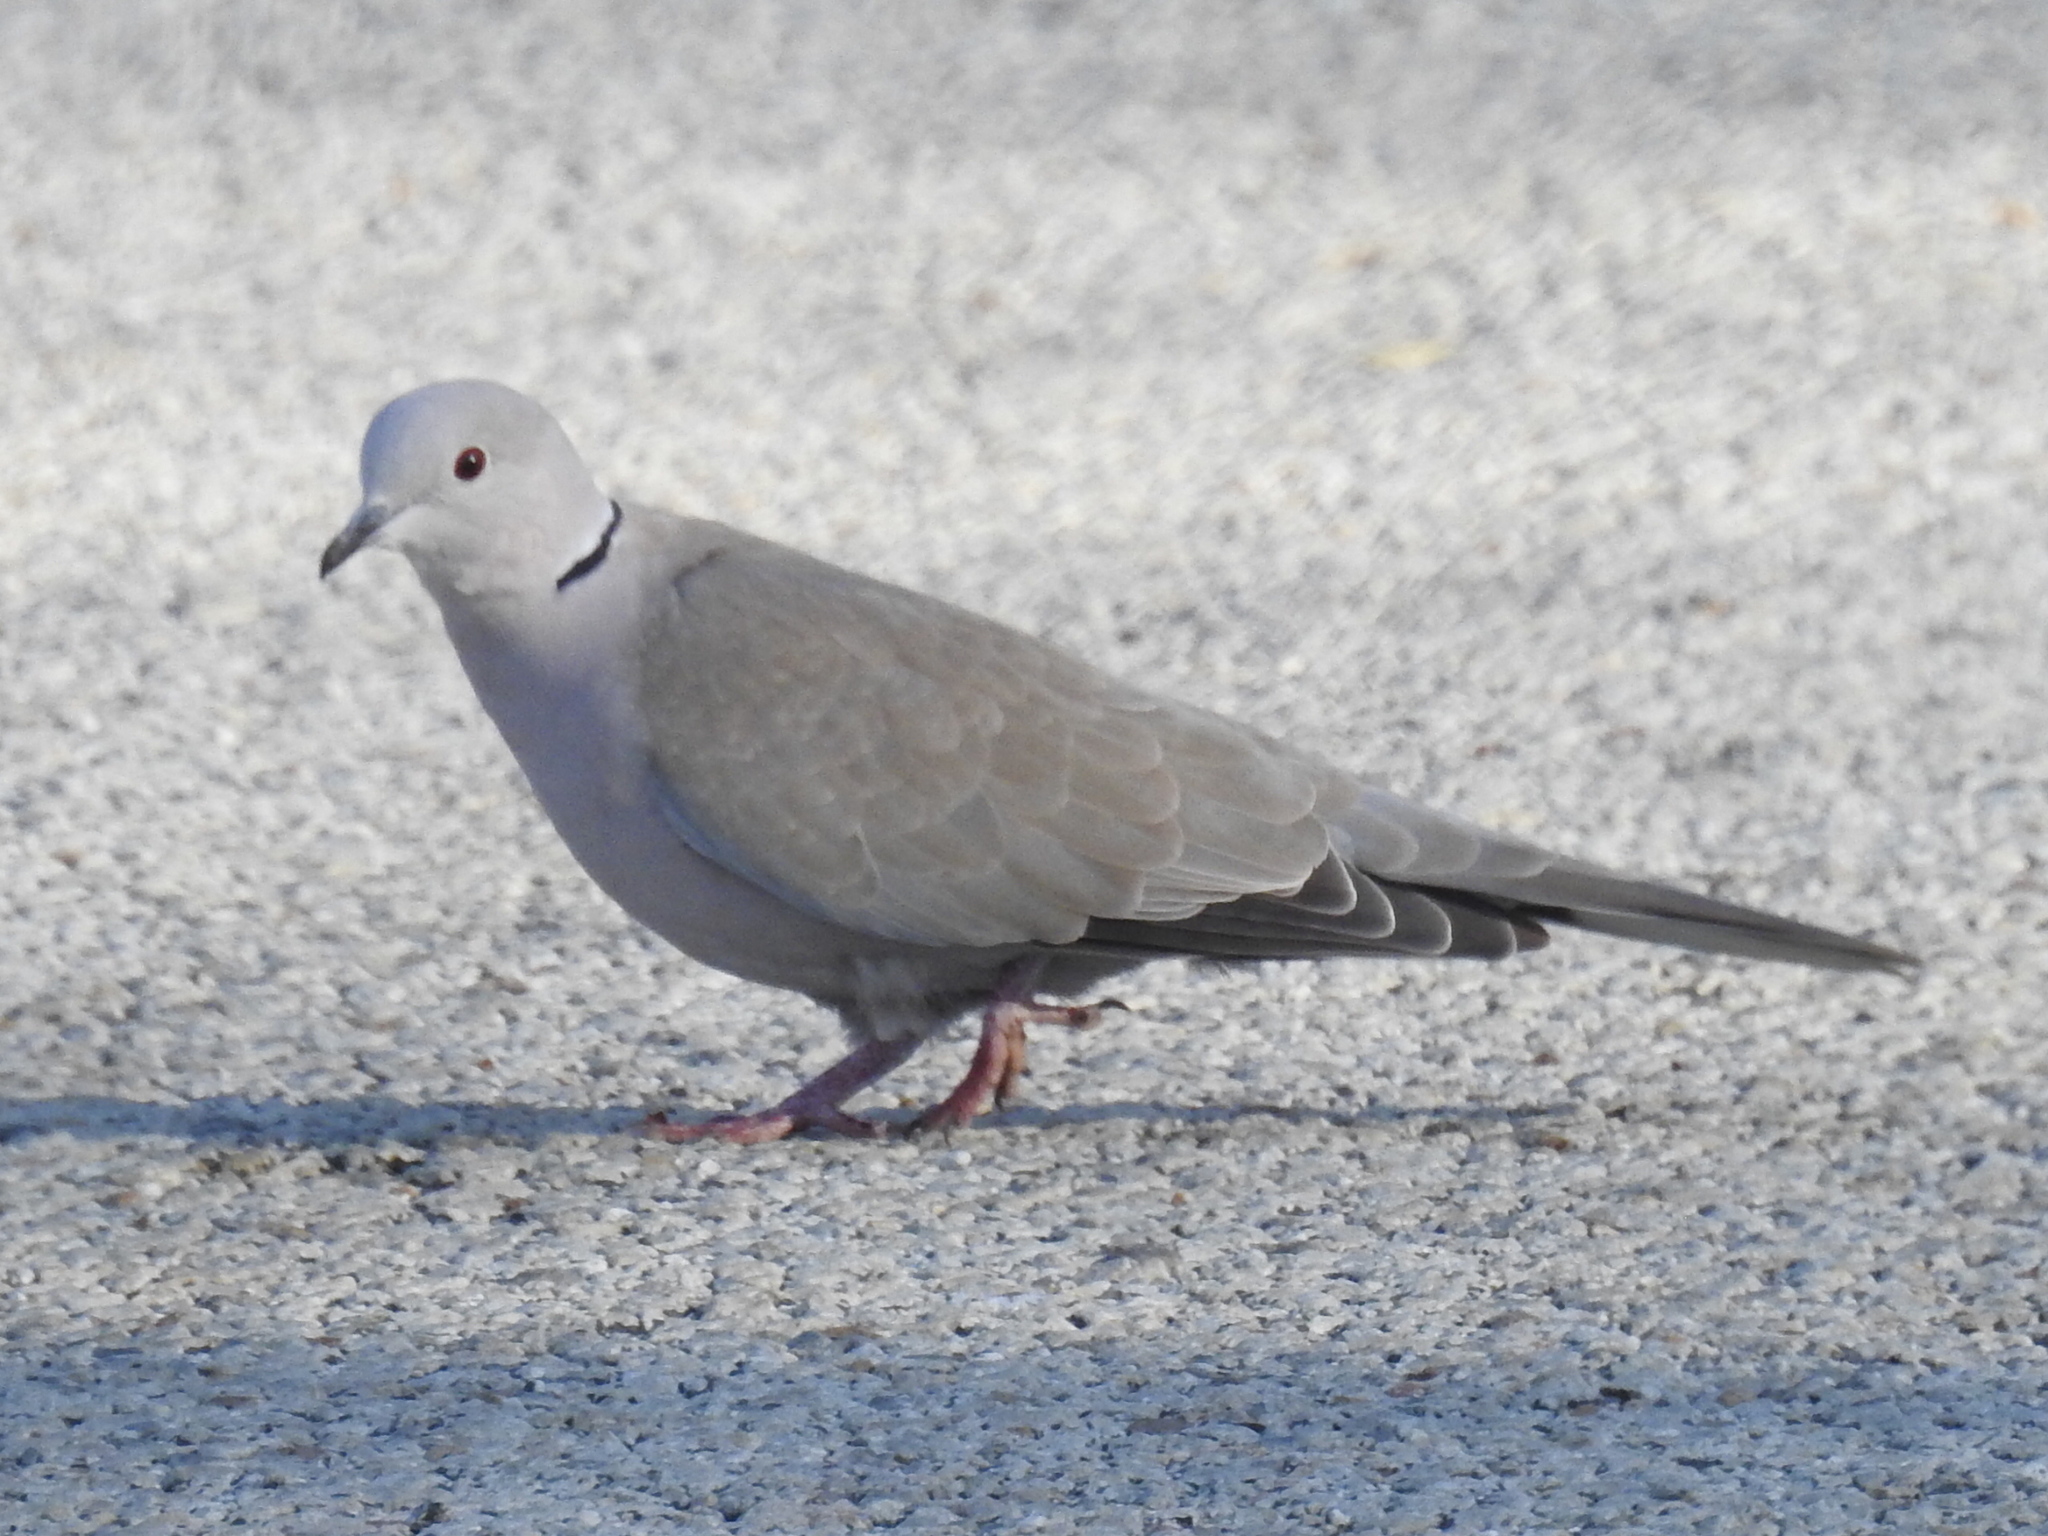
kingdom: Animalia
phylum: Chordata
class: Aves
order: Columbiformes
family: Columbidae
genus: Streptopelia
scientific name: Streptopelia decaocto
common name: Eurasian collared dove
